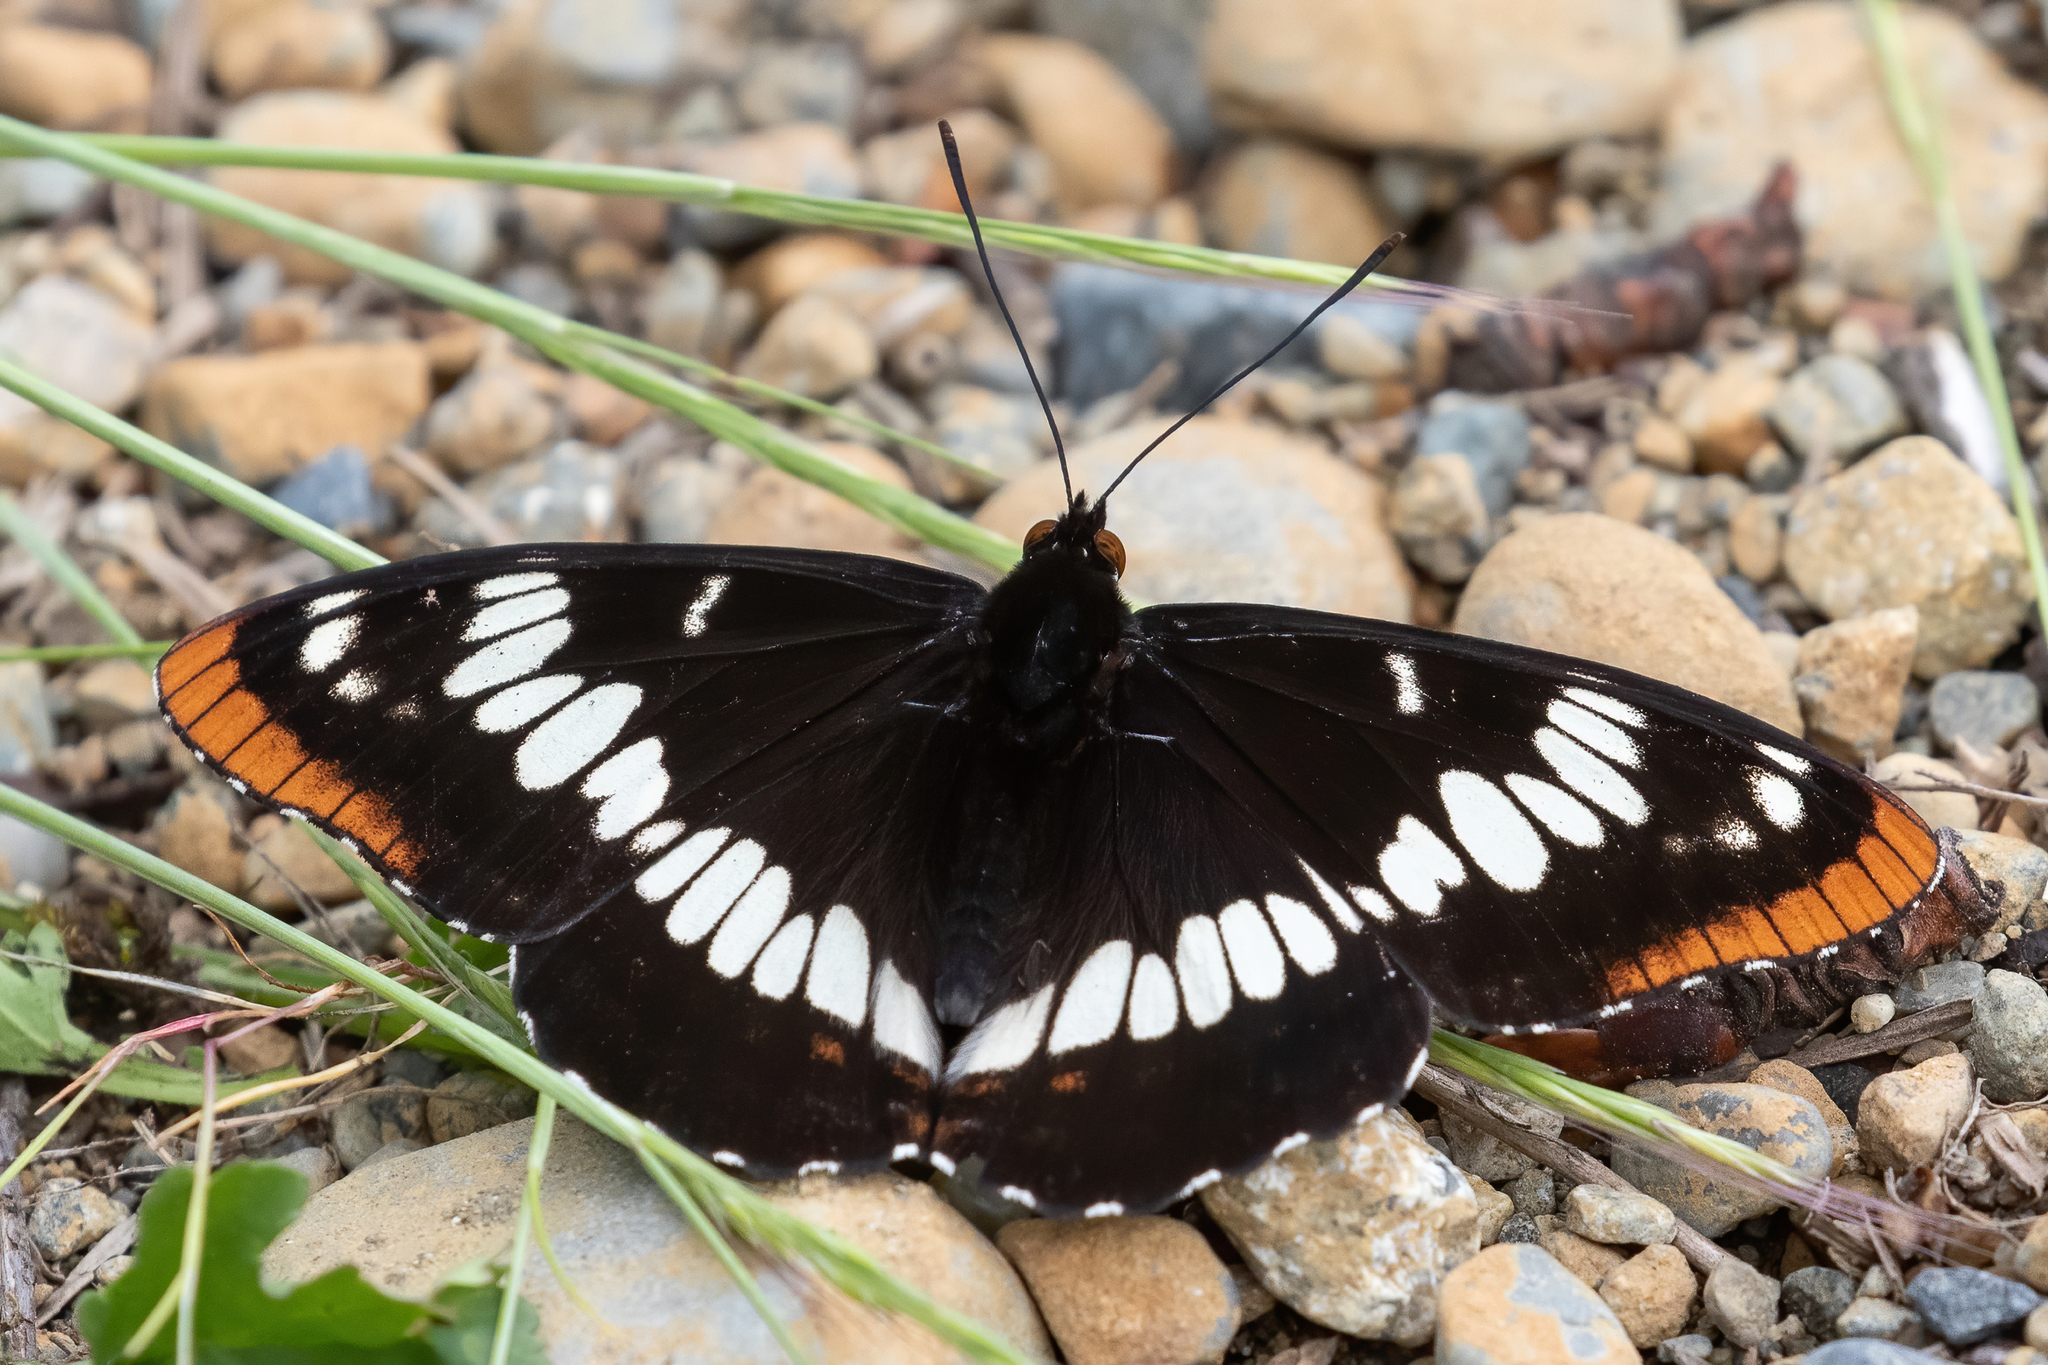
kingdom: Animalia
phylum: Arthropoda
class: Insecta
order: Lepidoptera
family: Nymphalidae
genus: Limenitis
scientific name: Limenitis lorquini
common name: Lorquin's admiral
